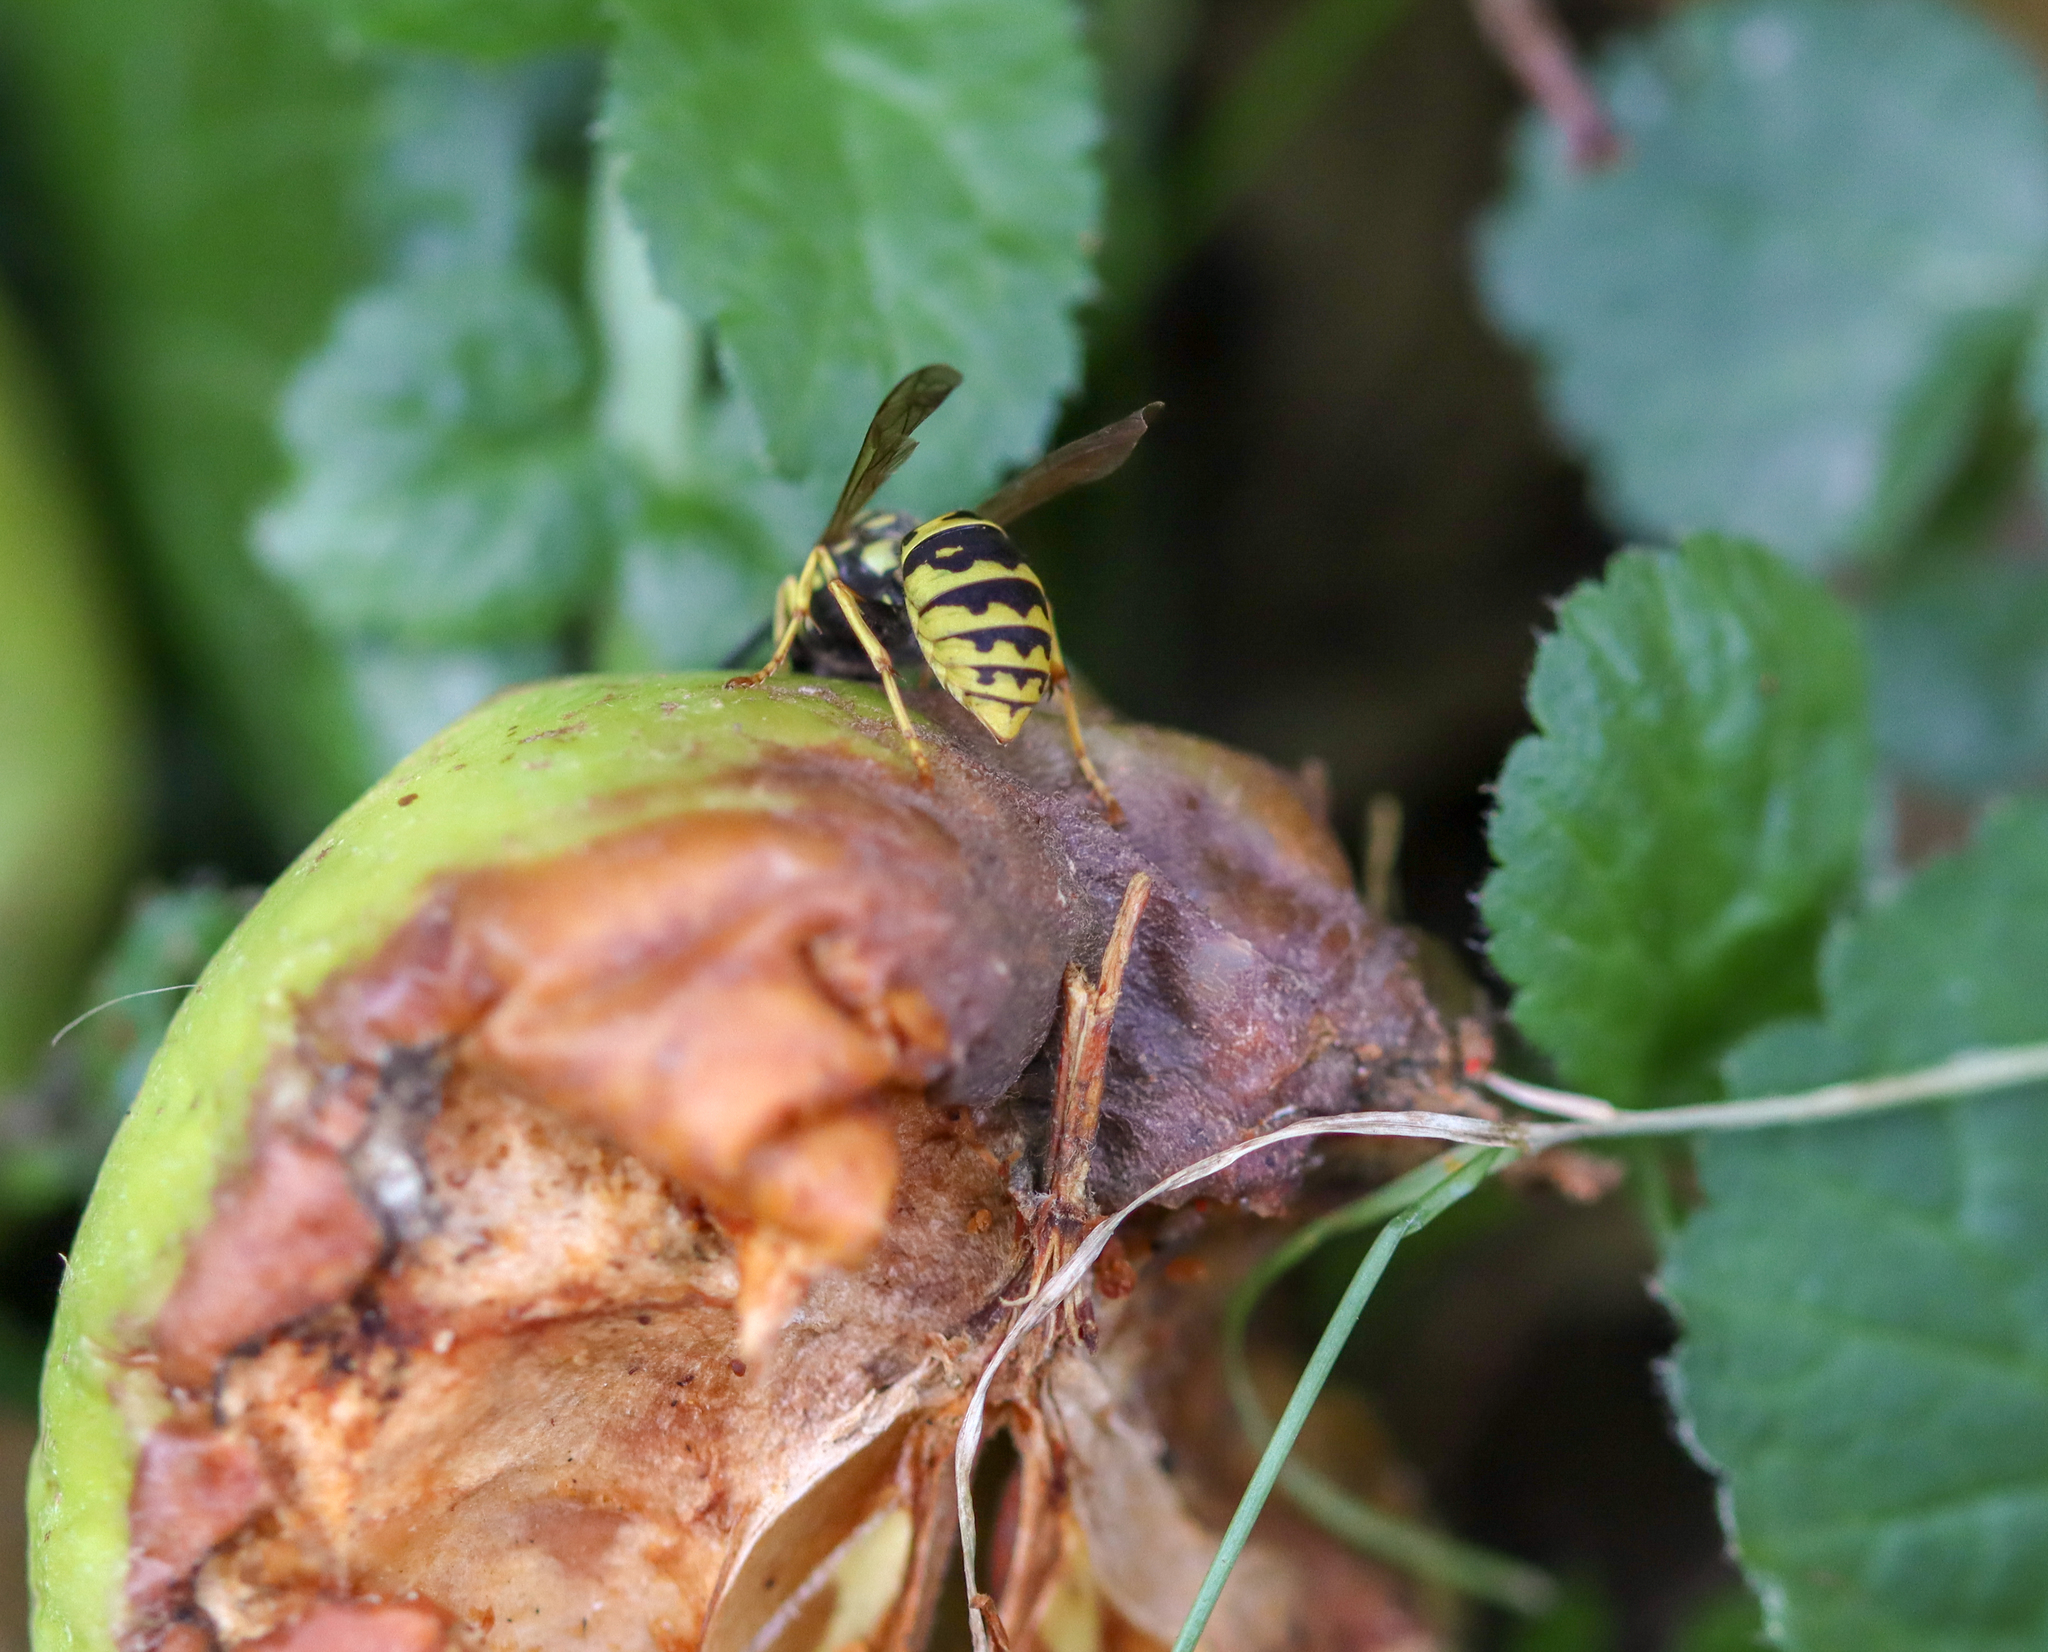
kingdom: Animalia
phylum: Arthropoda
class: Insecta
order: Hymenoptera
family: Vespidae
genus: Vespula
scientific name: Vespula germanica
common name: German wasp
